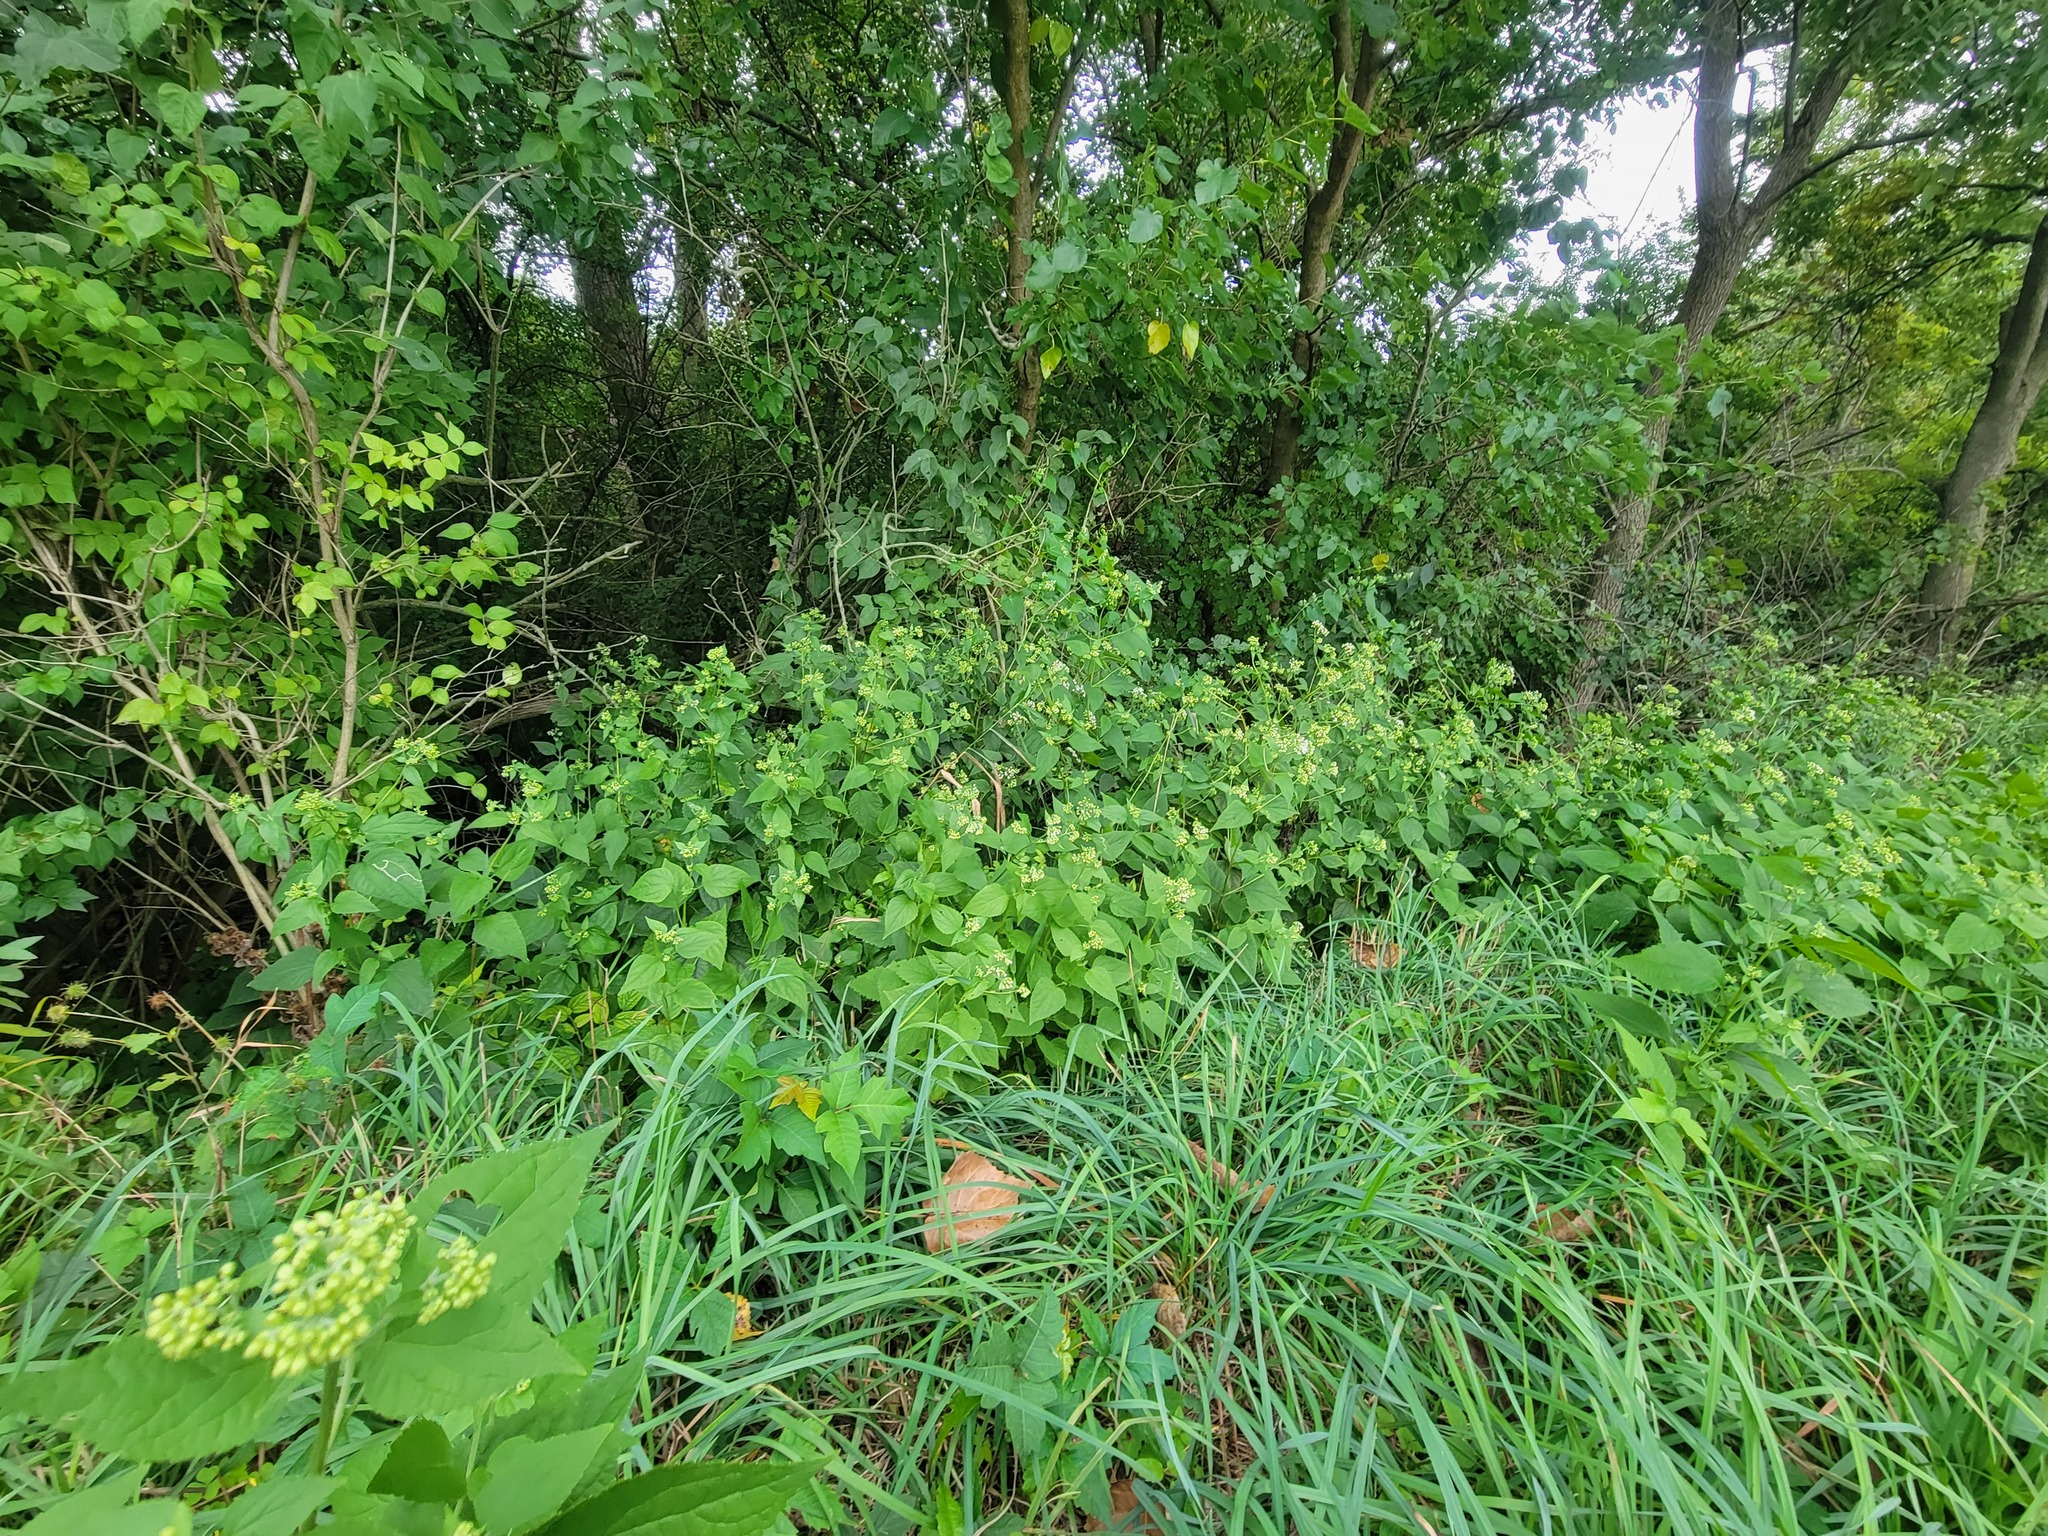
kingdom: Plantae
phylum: Tracheophyta
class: Magnoliopsida
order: Asterales
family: Asteraceae
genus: Ageratina
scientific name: Ageratina altissima
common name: White snakeroot
